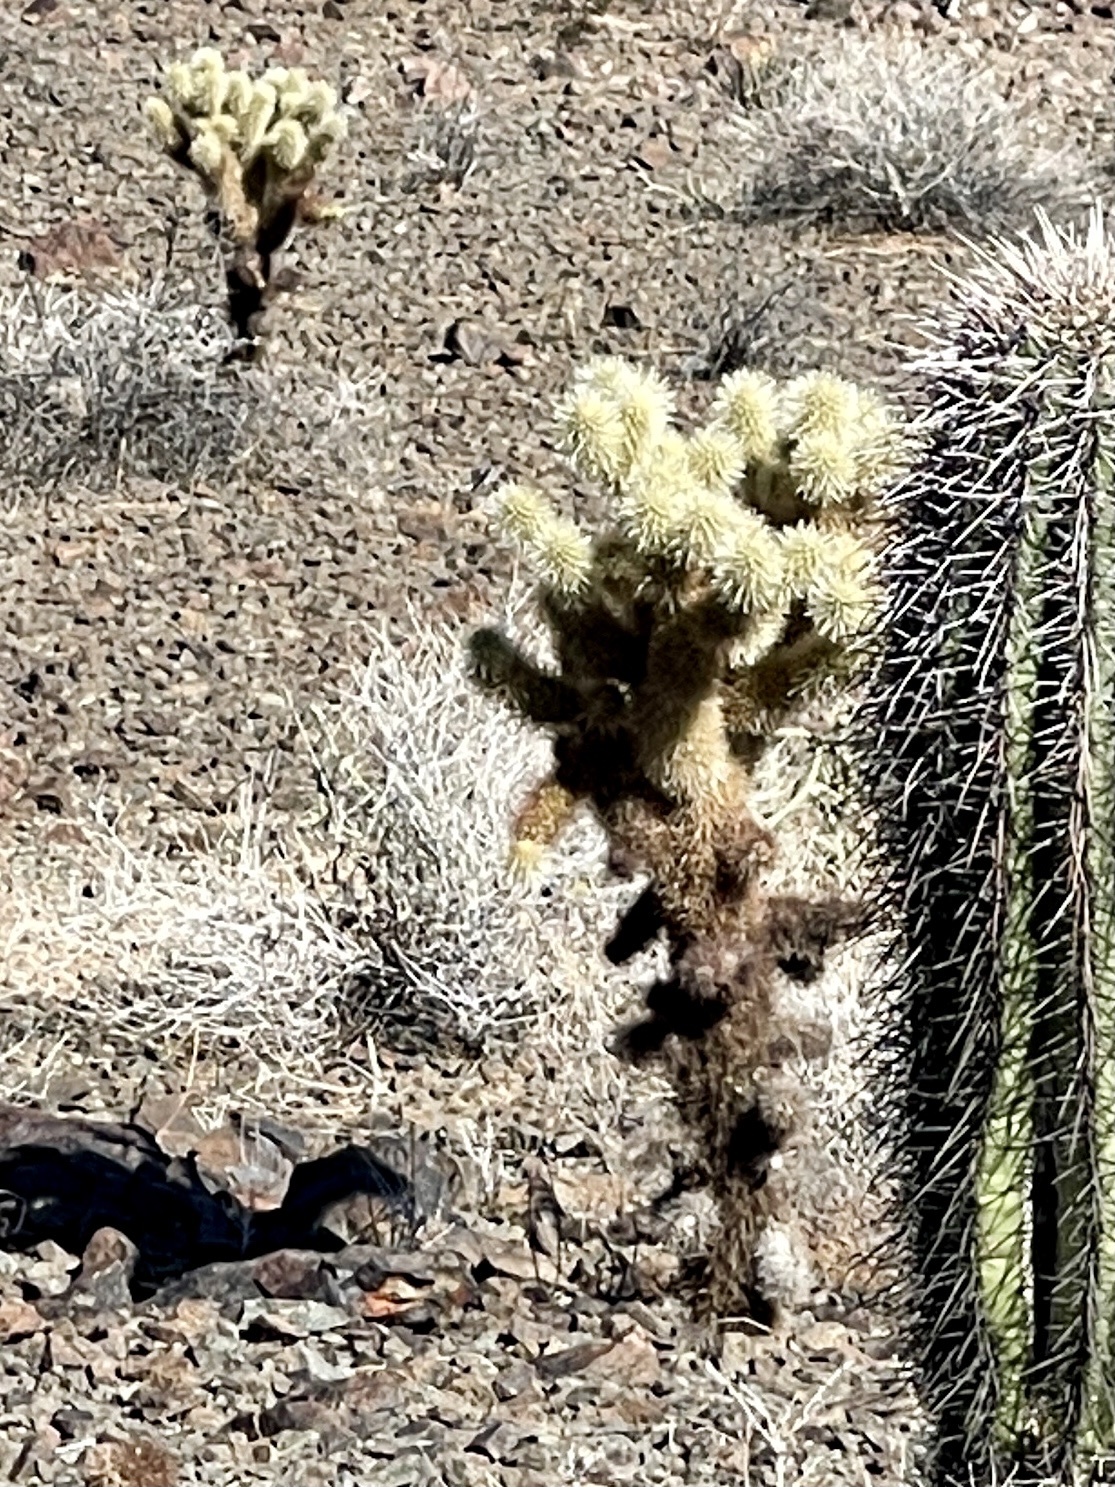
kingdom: Plantae
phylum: Tracheophyta
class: Magnoliopsida
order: Caryophyllales
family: Cactaceae
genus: Cylindropuntia
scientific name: Cylindropuntia fosbergii
